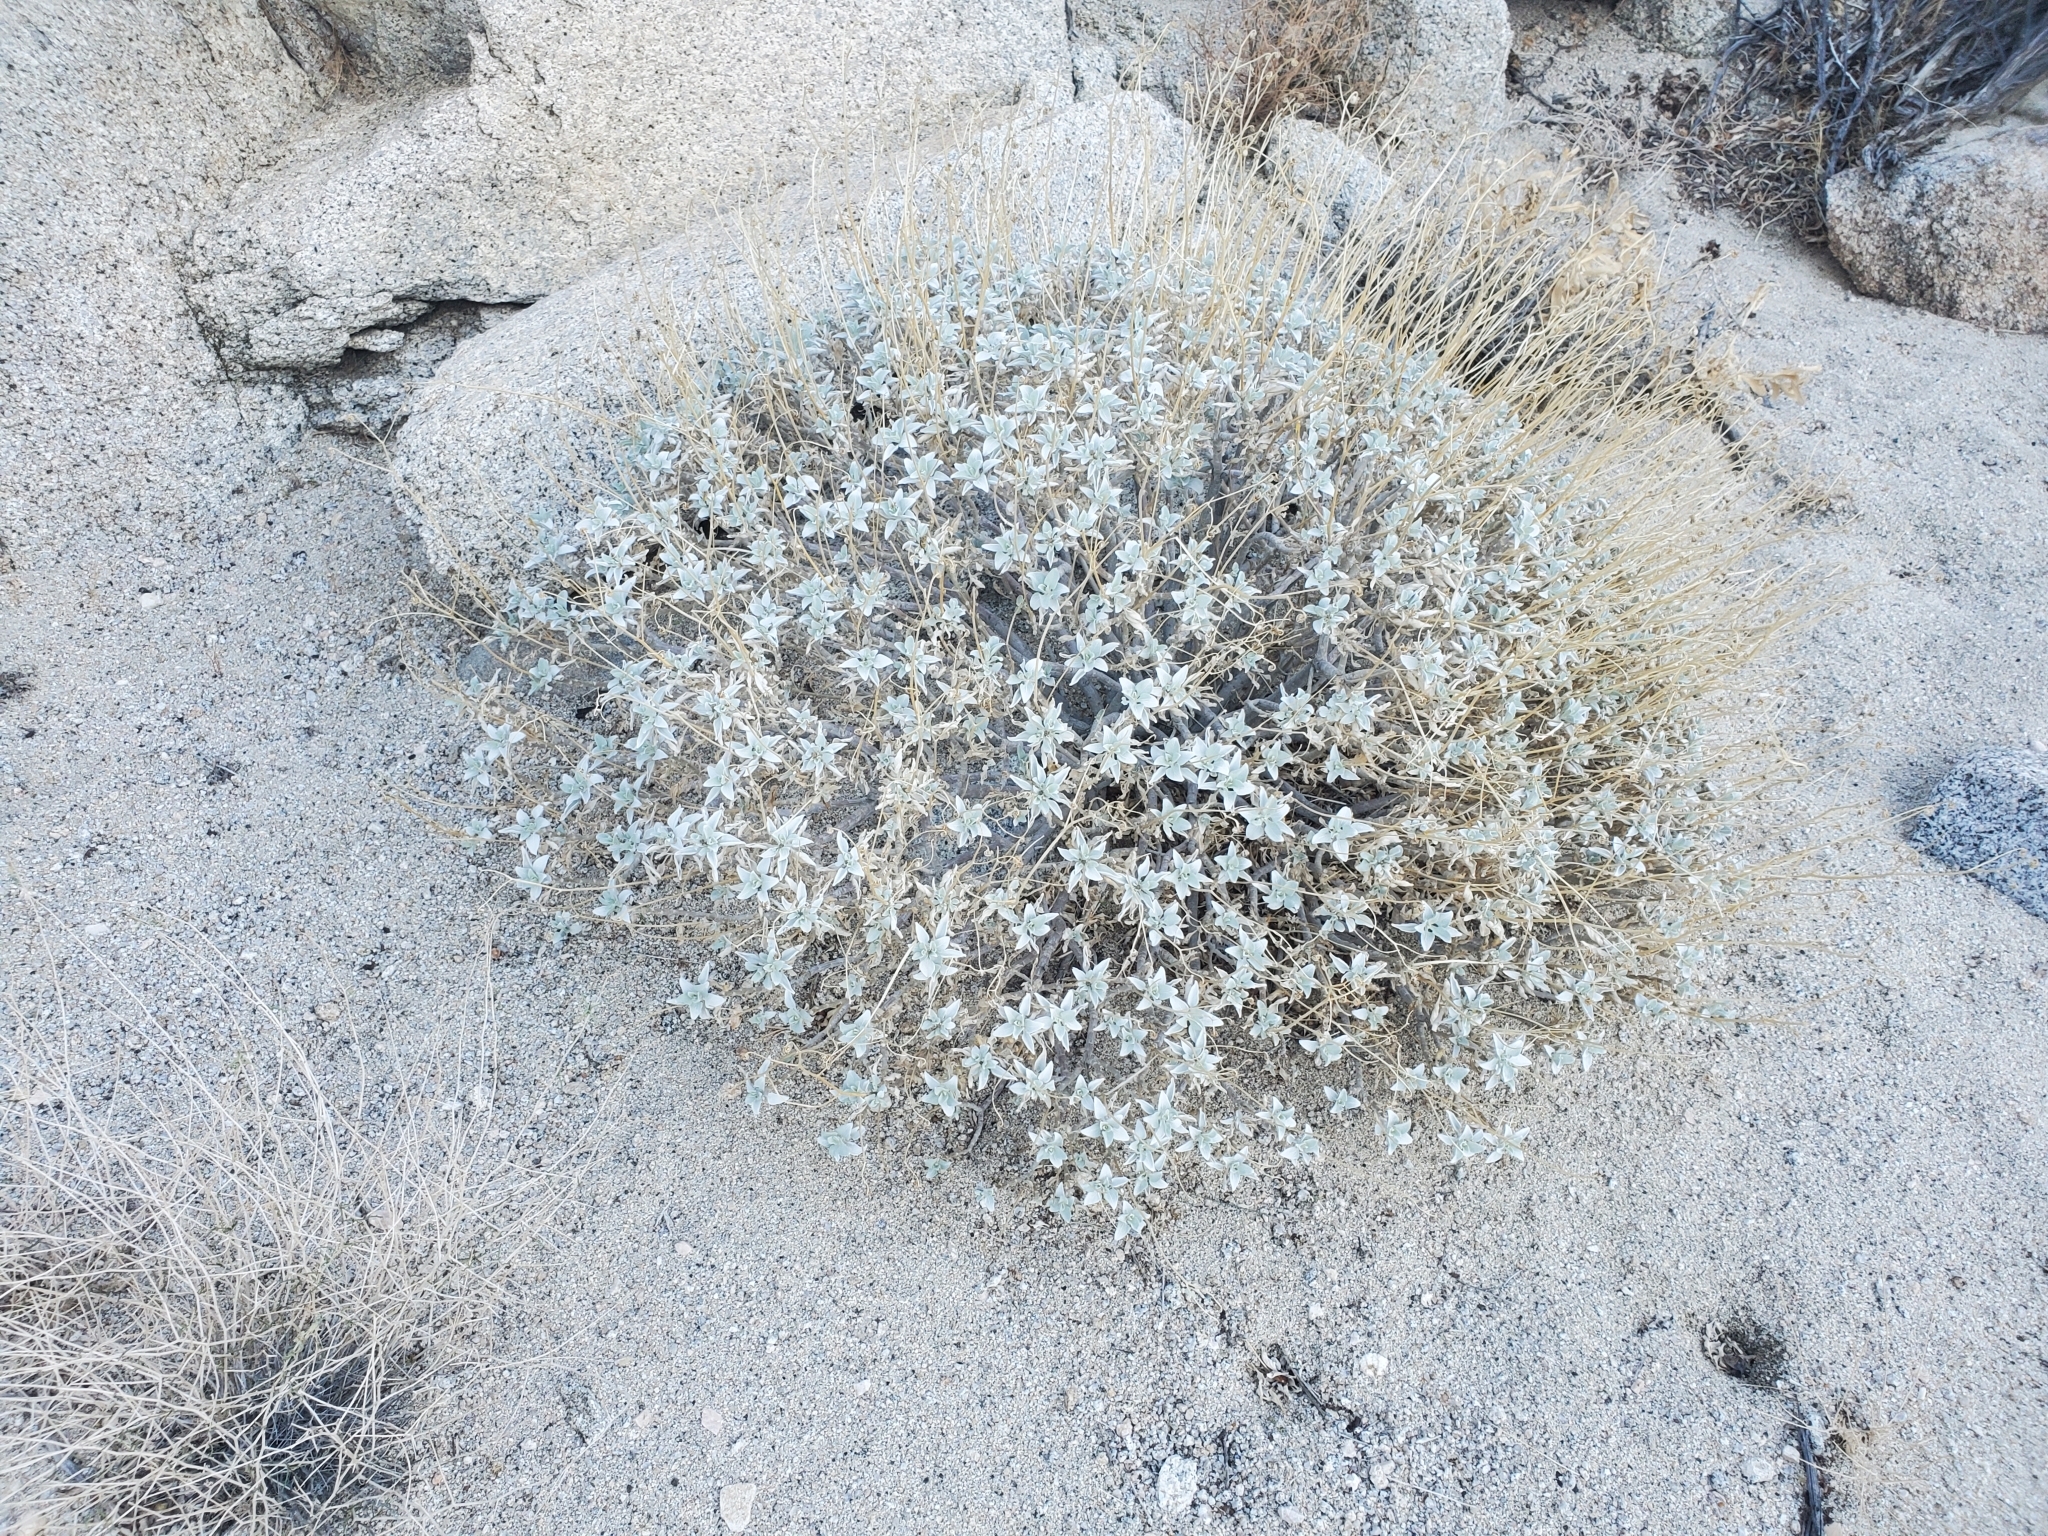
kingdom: Plantae
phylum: Tracheophyta
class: Magnoliopsida
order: Asterales
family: Asteraceae
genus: Encelia
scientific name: Encelia farinosa
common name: Brittlebush
